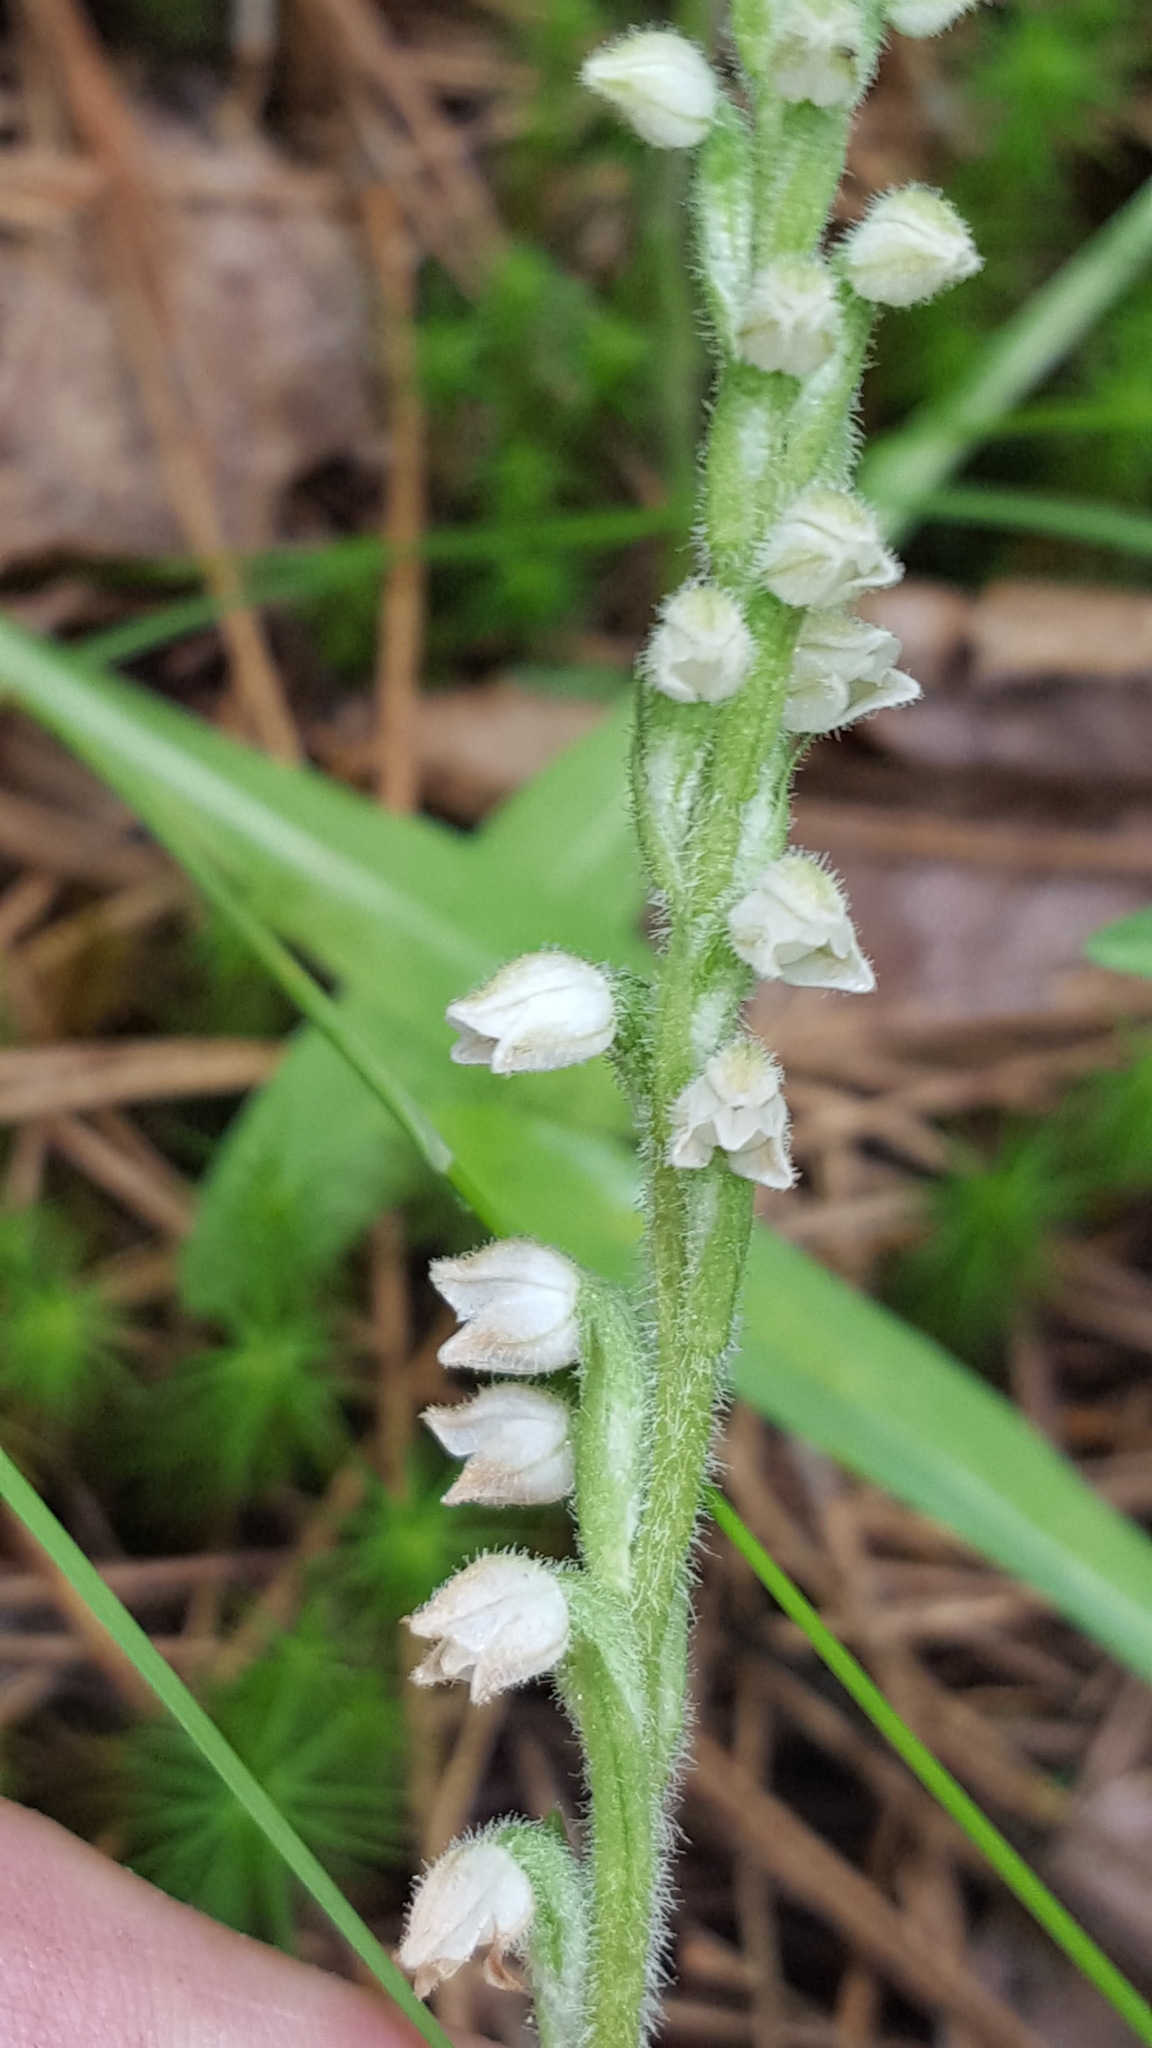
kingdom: Plantae
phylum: Tracheophyta
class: Liliopsida
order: Asparagales
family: Orchidaceae
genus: Goodyera
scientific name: Goodyera tesselata
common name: Checkered rattlesnake-plantain
